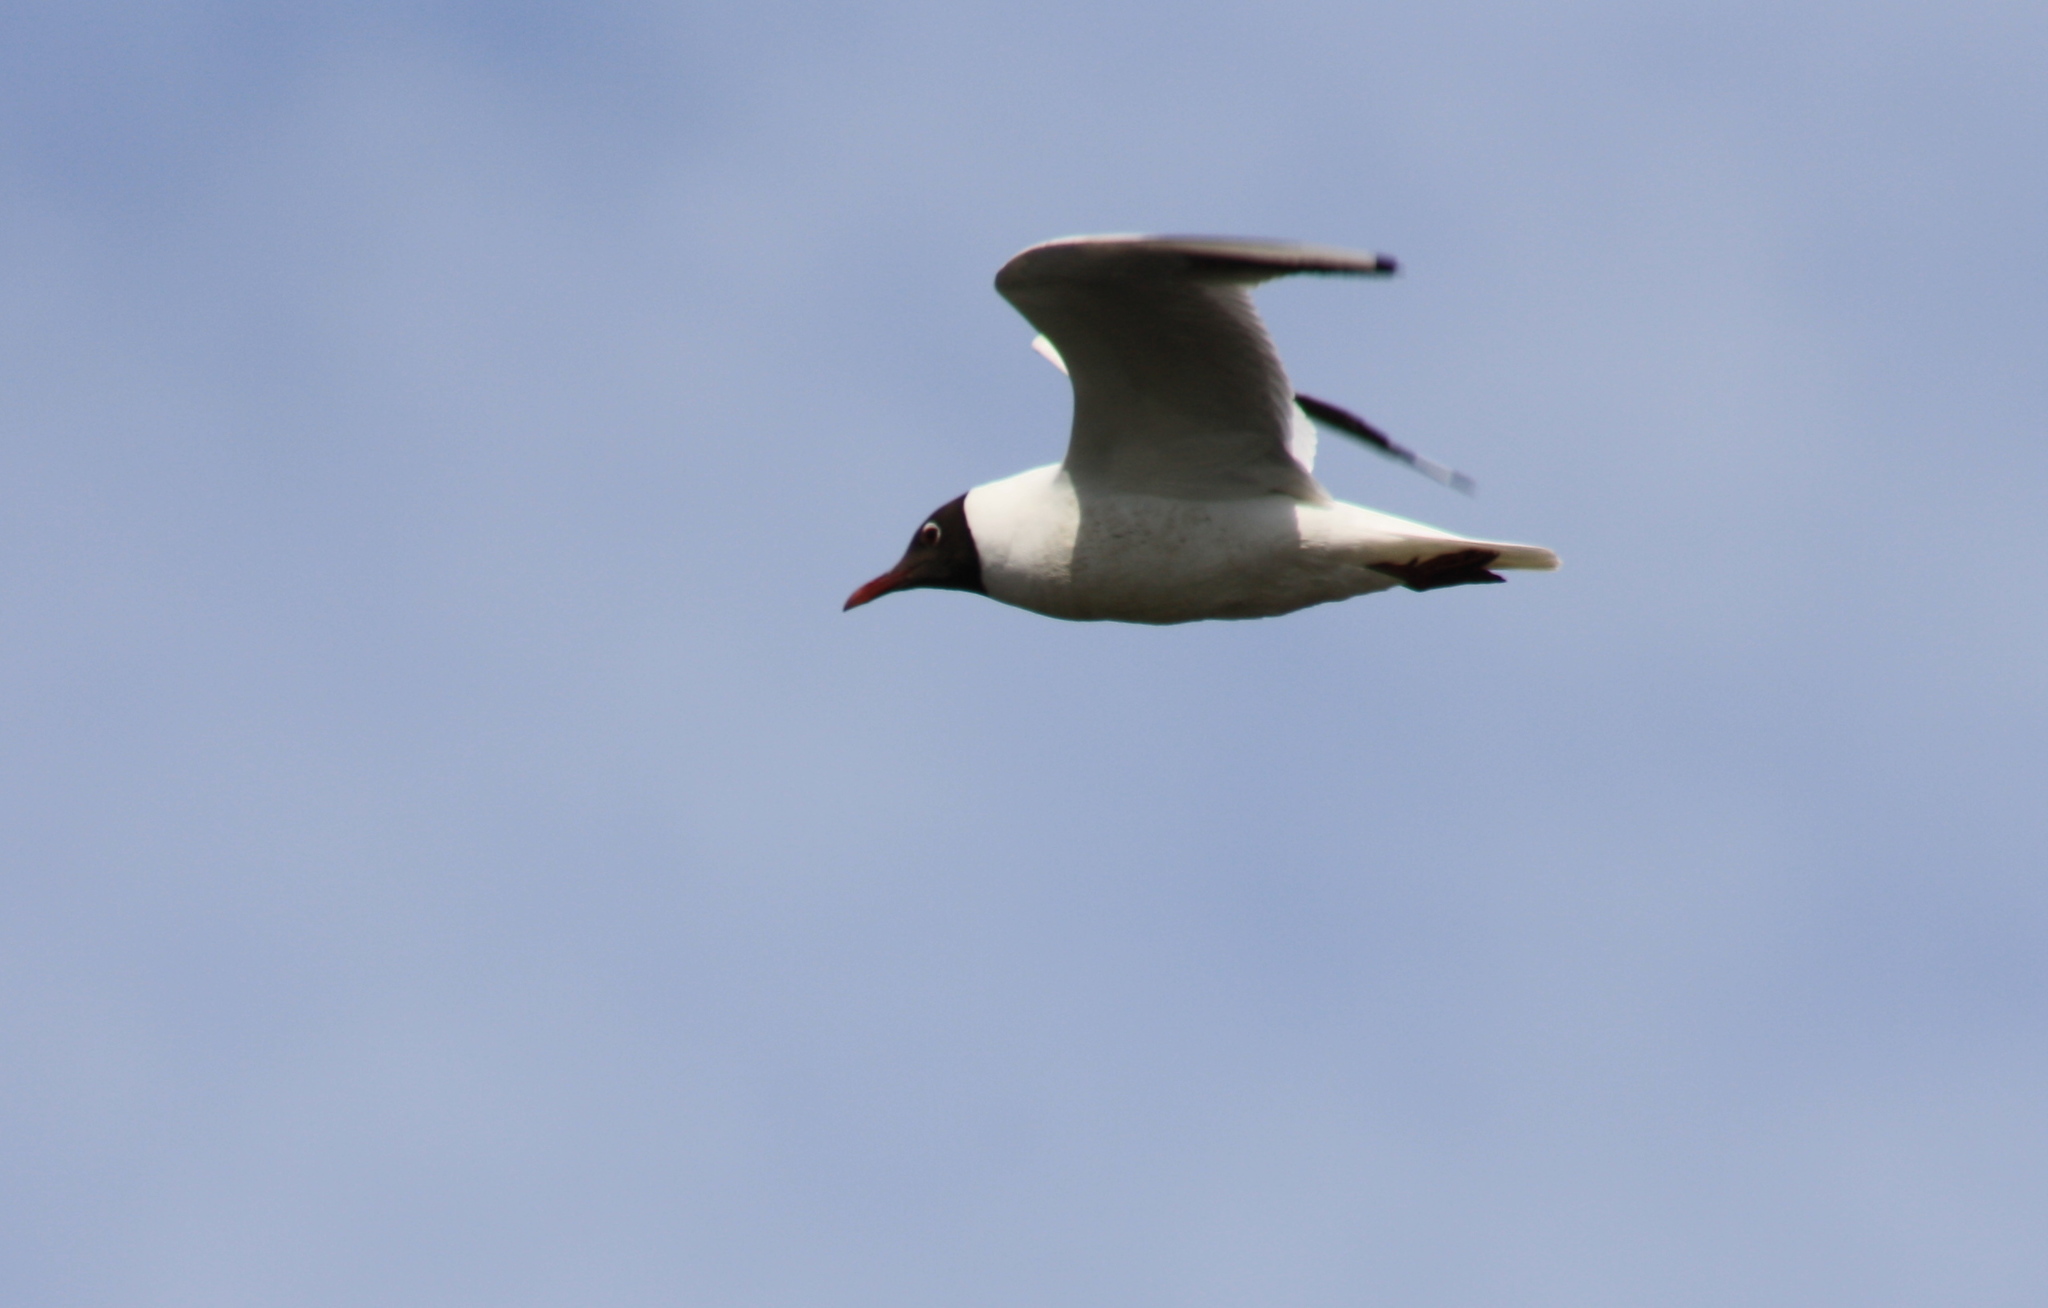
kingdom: Animalia
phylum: Chordata
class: Aves
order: Charadriiformes
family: Laridae
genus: Chroicocephalus
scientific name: Chroicocephalus ridibundus
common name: Black-headed gull
